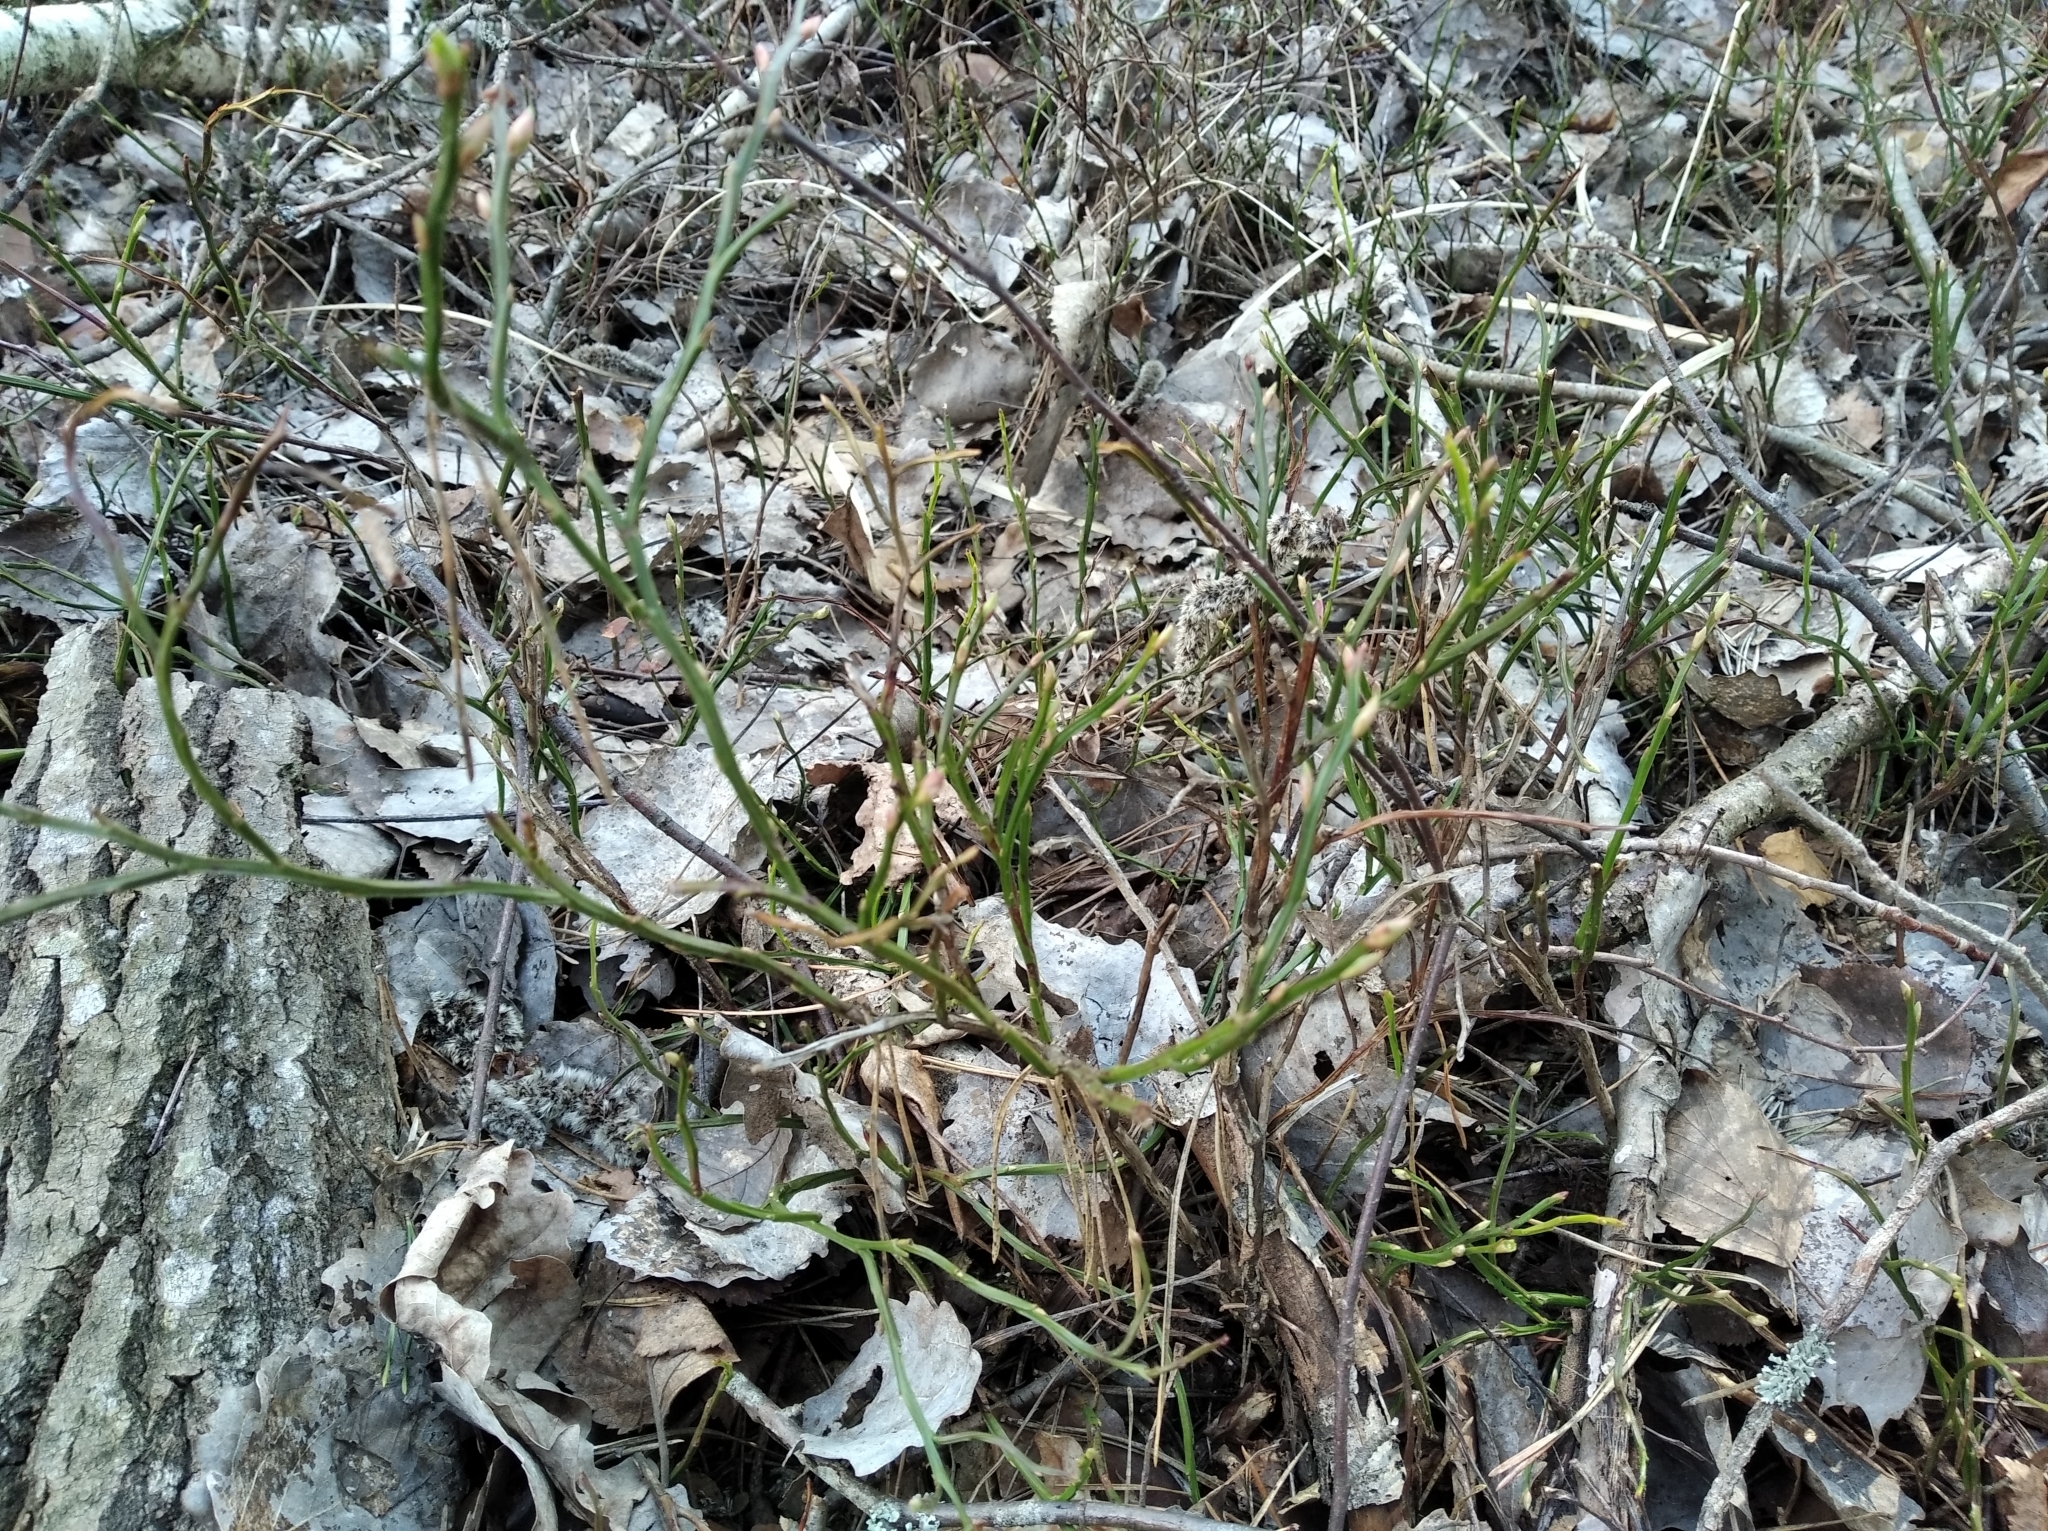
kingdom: Plantae
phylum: Tracheophyta
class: Magnoliopsida
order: Ericales
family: Ericaceae
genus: Vaccinium
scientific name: Vaccinium myrtillus
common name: Bilberry
